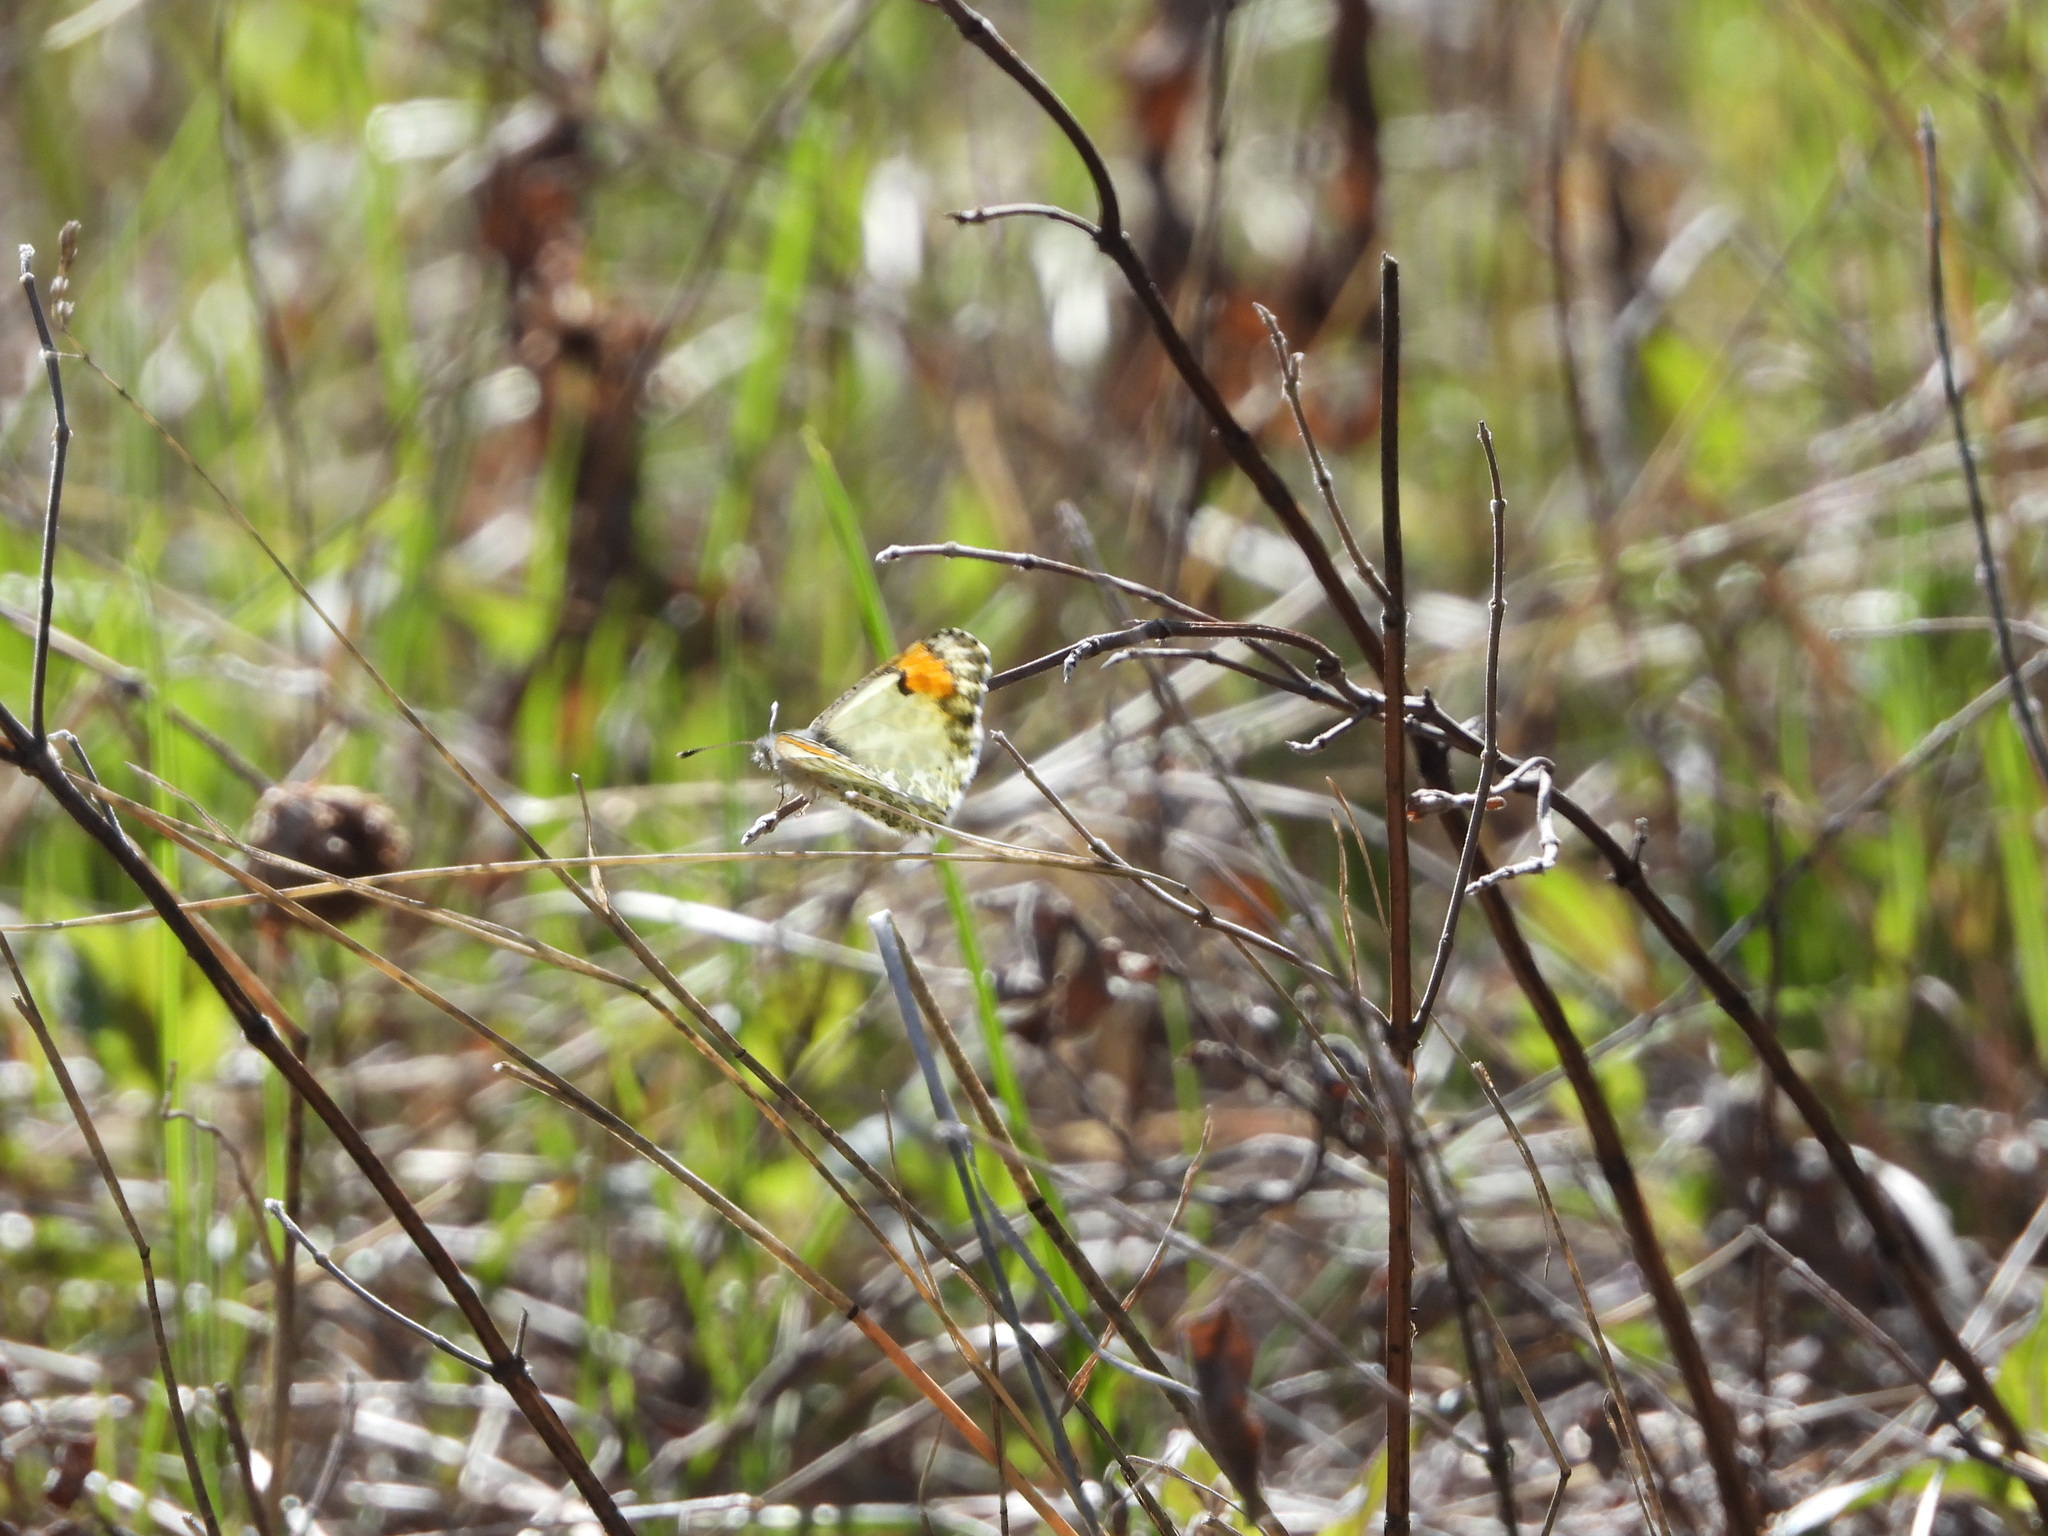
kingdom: Animalia
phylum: Arthropoda
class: Insecta
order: Lepidoptera
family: Pieridae
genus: Anthocharis
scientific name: Anthocharis julia
